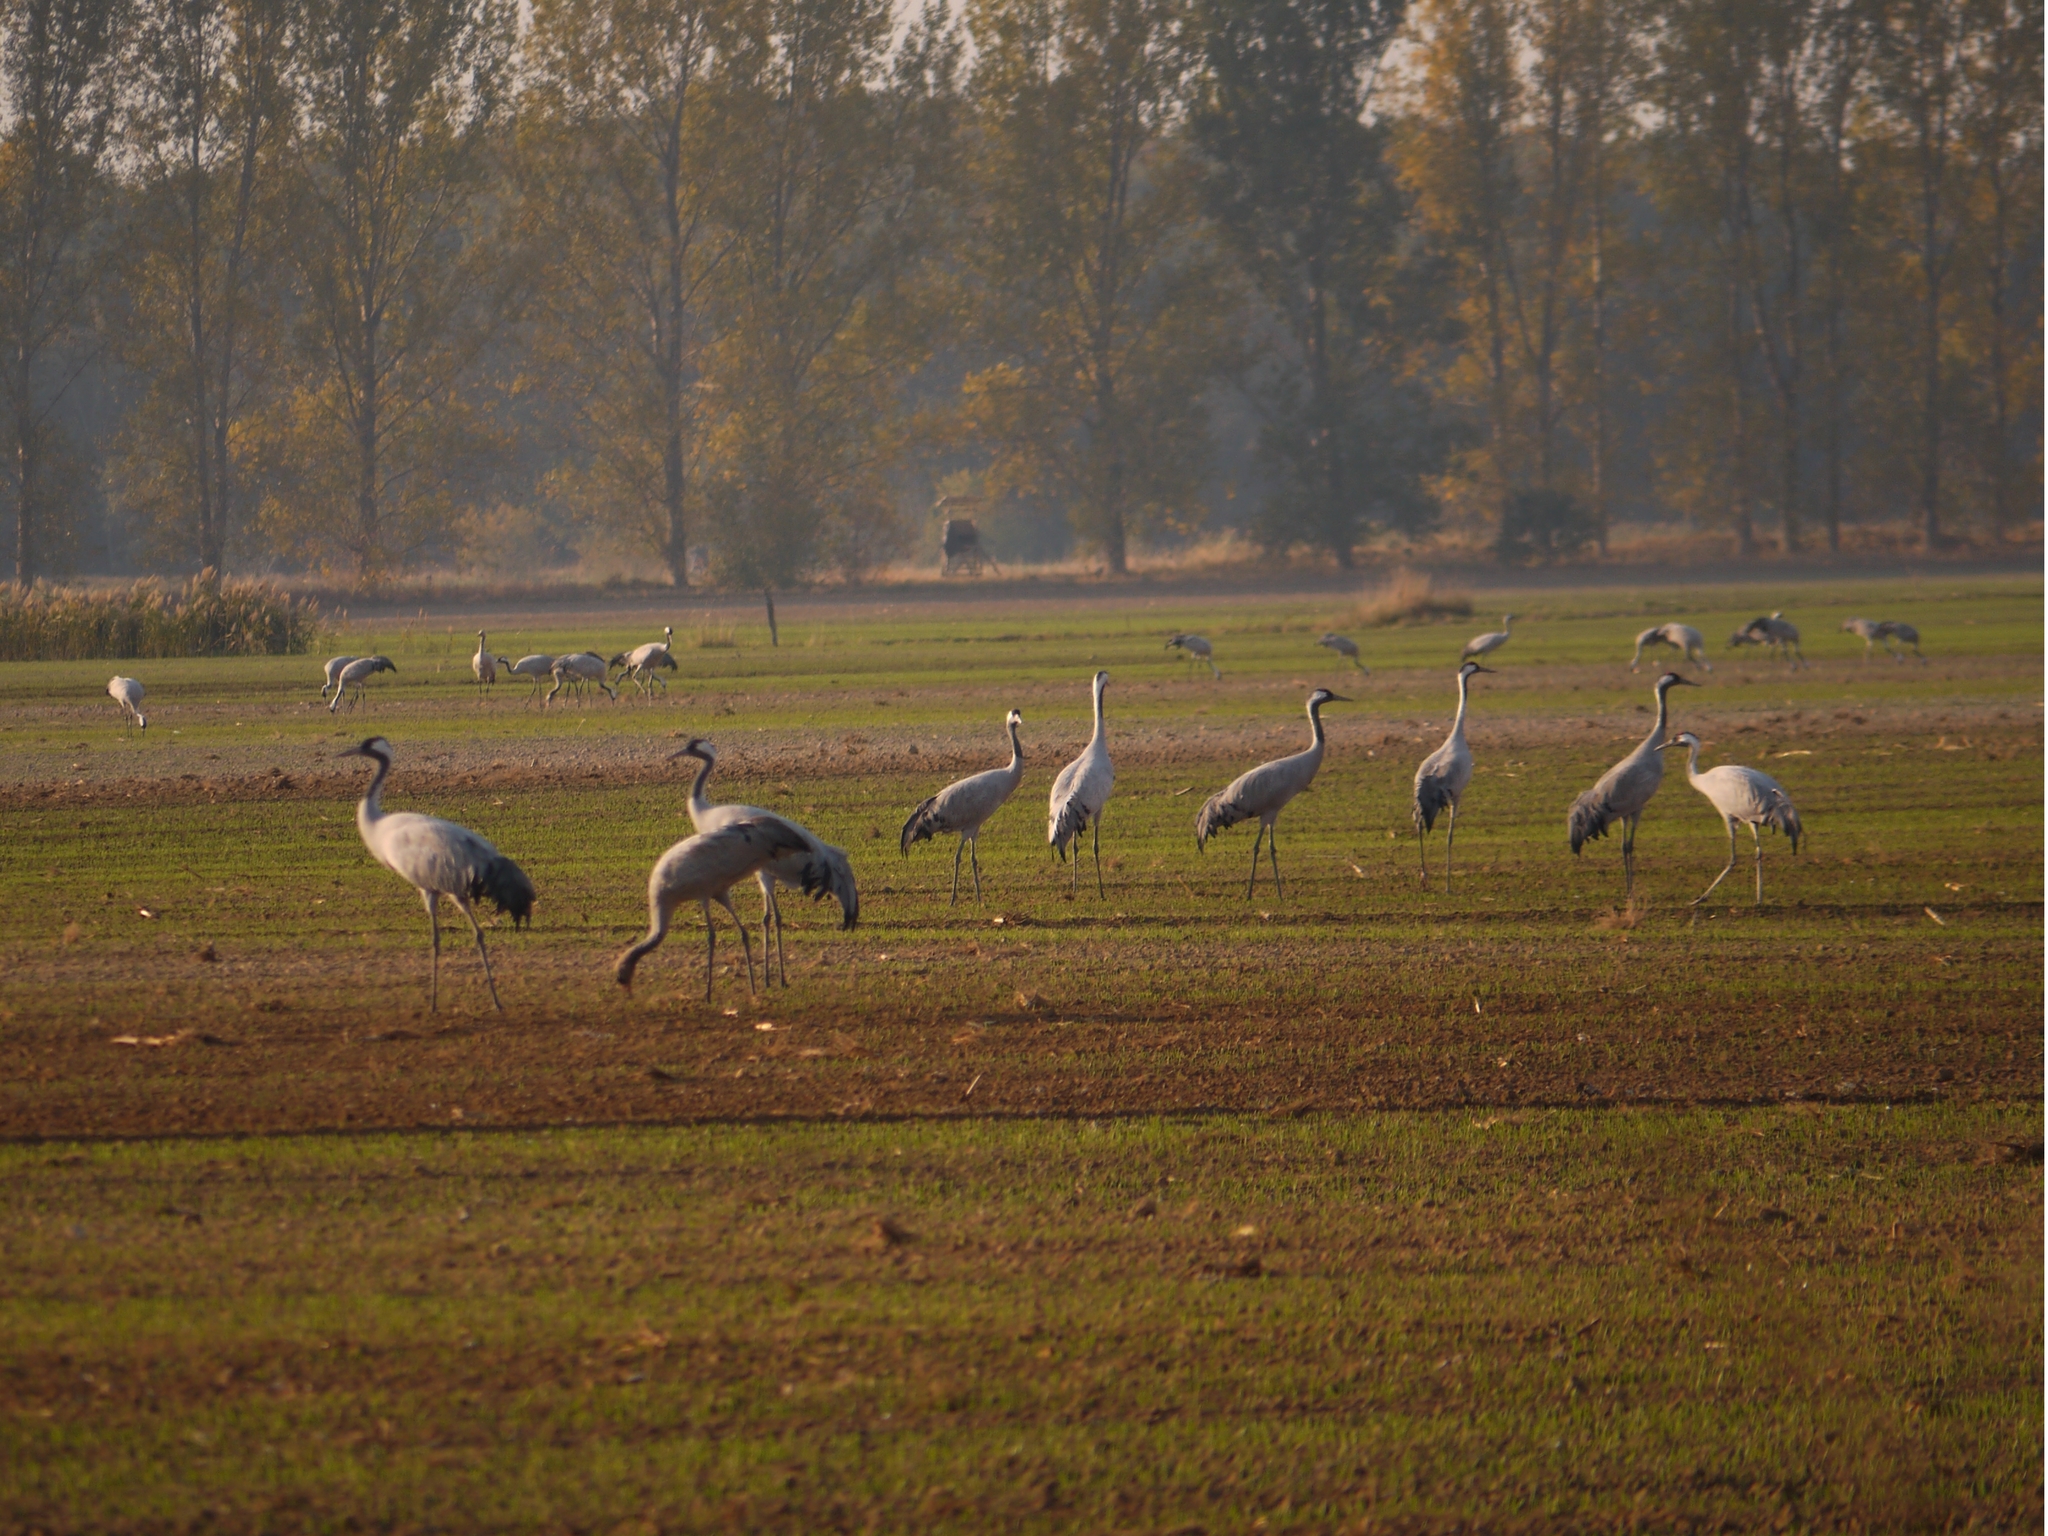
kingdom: Animalia
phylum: Chordata
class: Aves
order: Gruiformes
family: Gruidae
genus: Grus
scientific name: Grus grus
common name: Common crane
